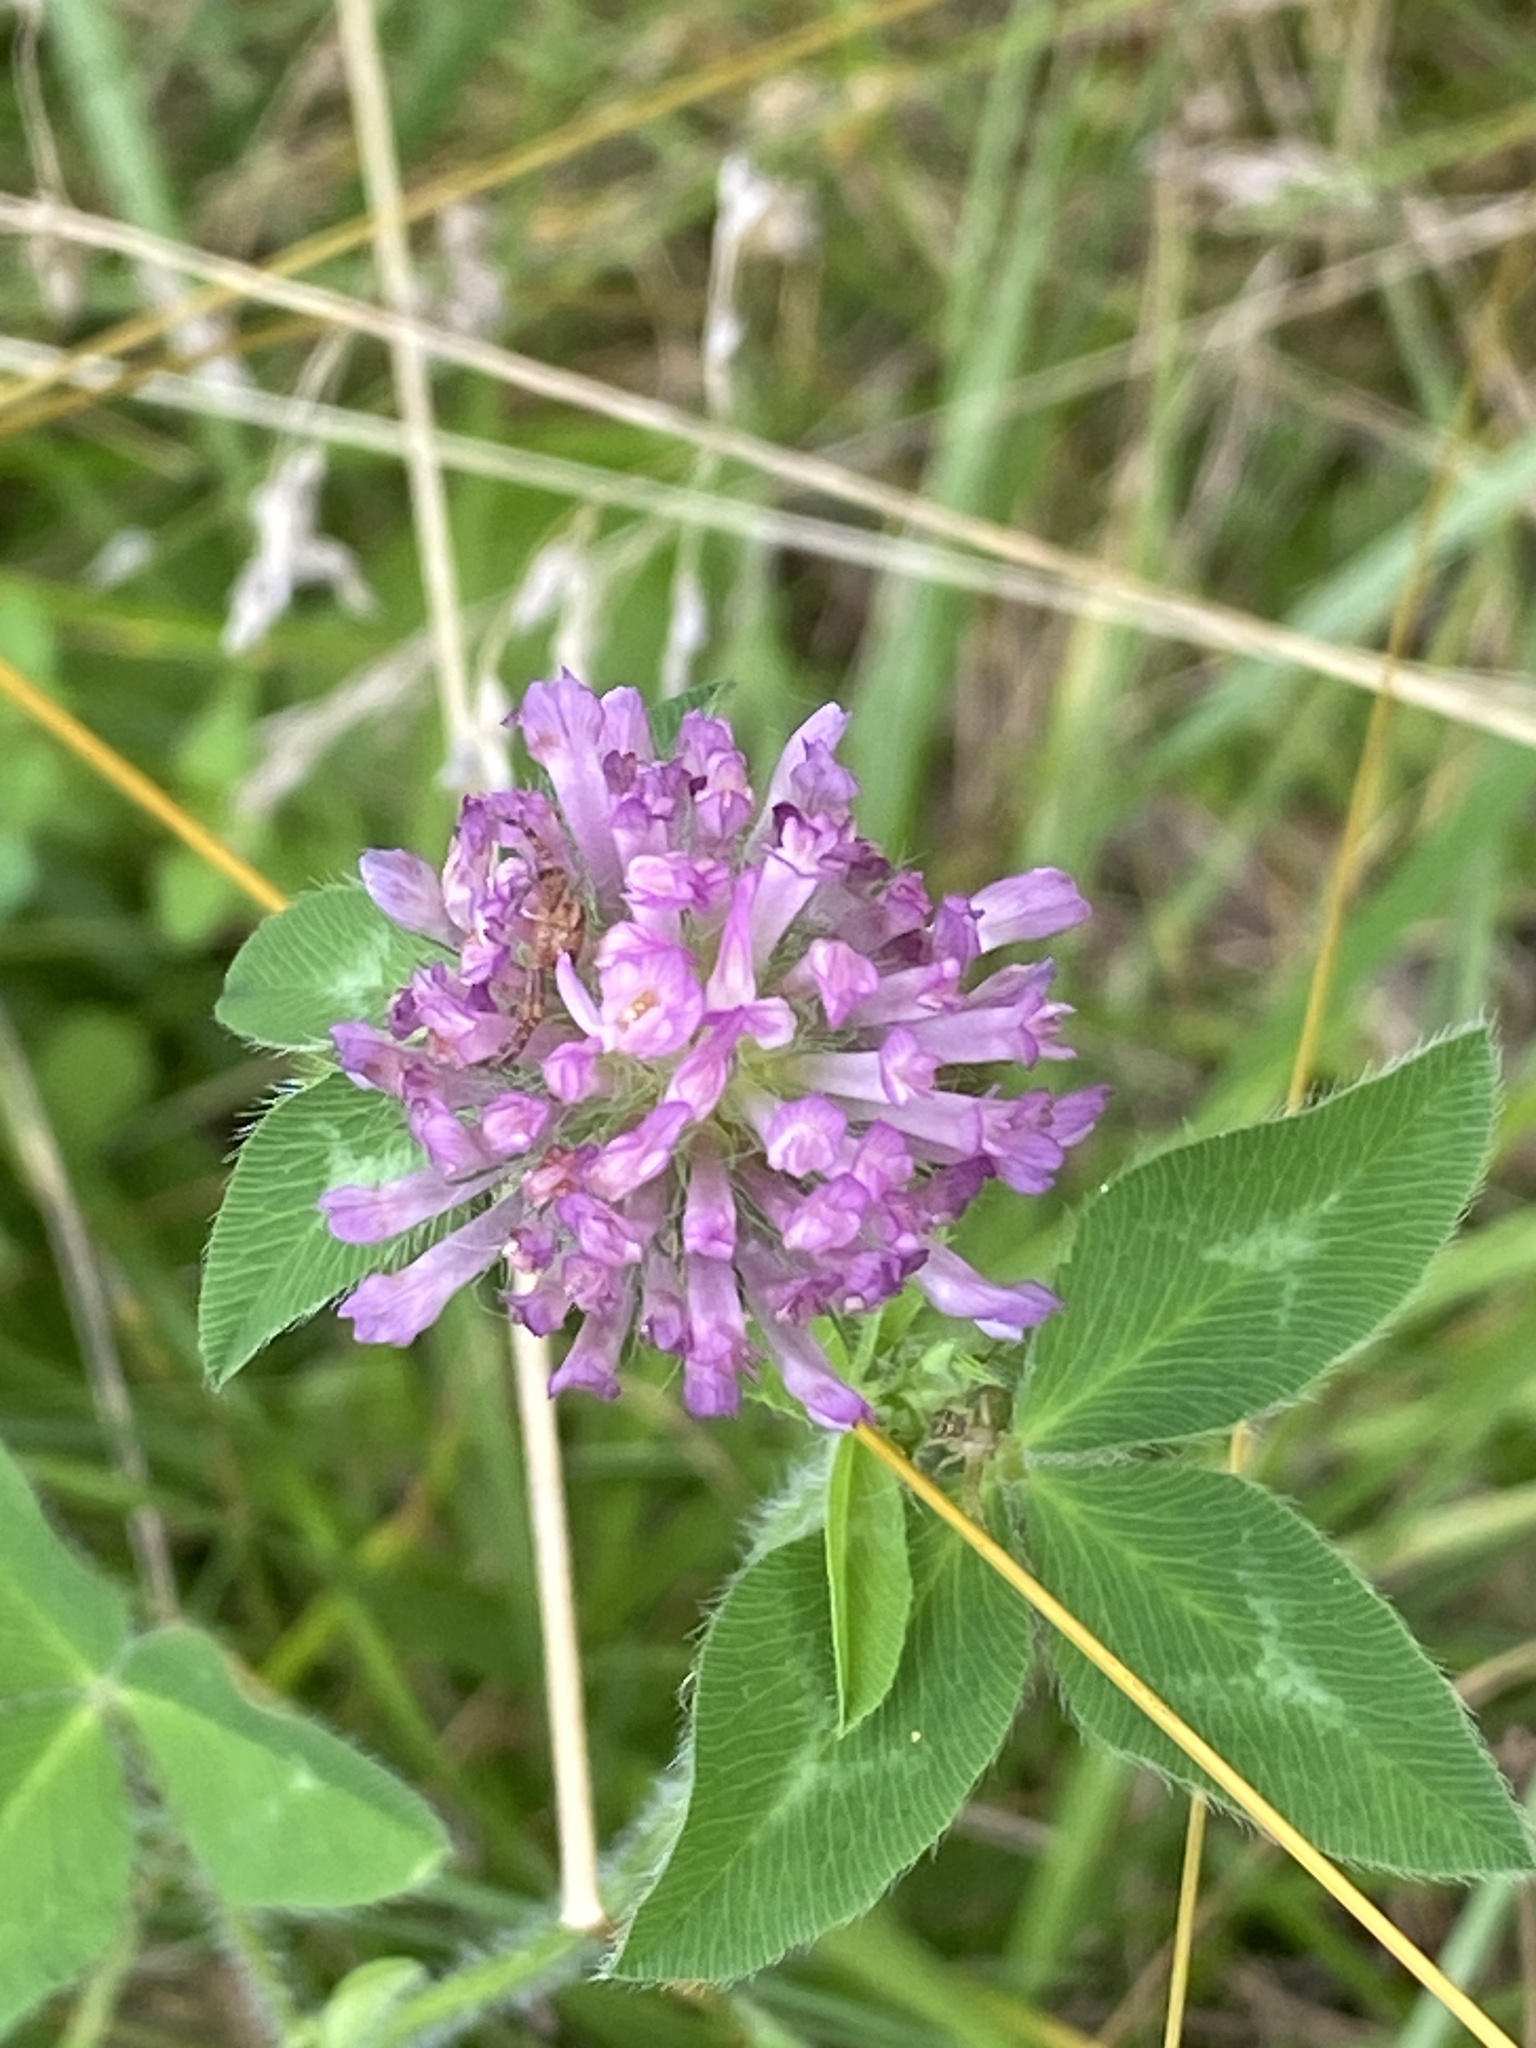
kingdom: Plantae
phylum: Tracheophyta
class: Magnoliopsida
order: Fabales
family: Fabaceae
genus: Trifolium
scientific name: Trifolium pratense
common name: Red clover
